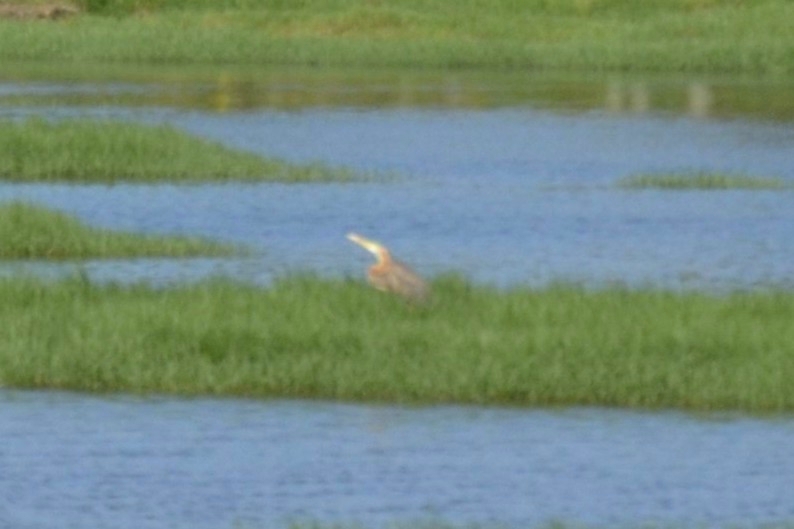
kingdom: Animalia
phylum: Chordata
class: Aves
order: Pelecaniformes
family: Ardeidae
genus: Ardea
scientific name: Ardea purpurea
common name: Purple heron
